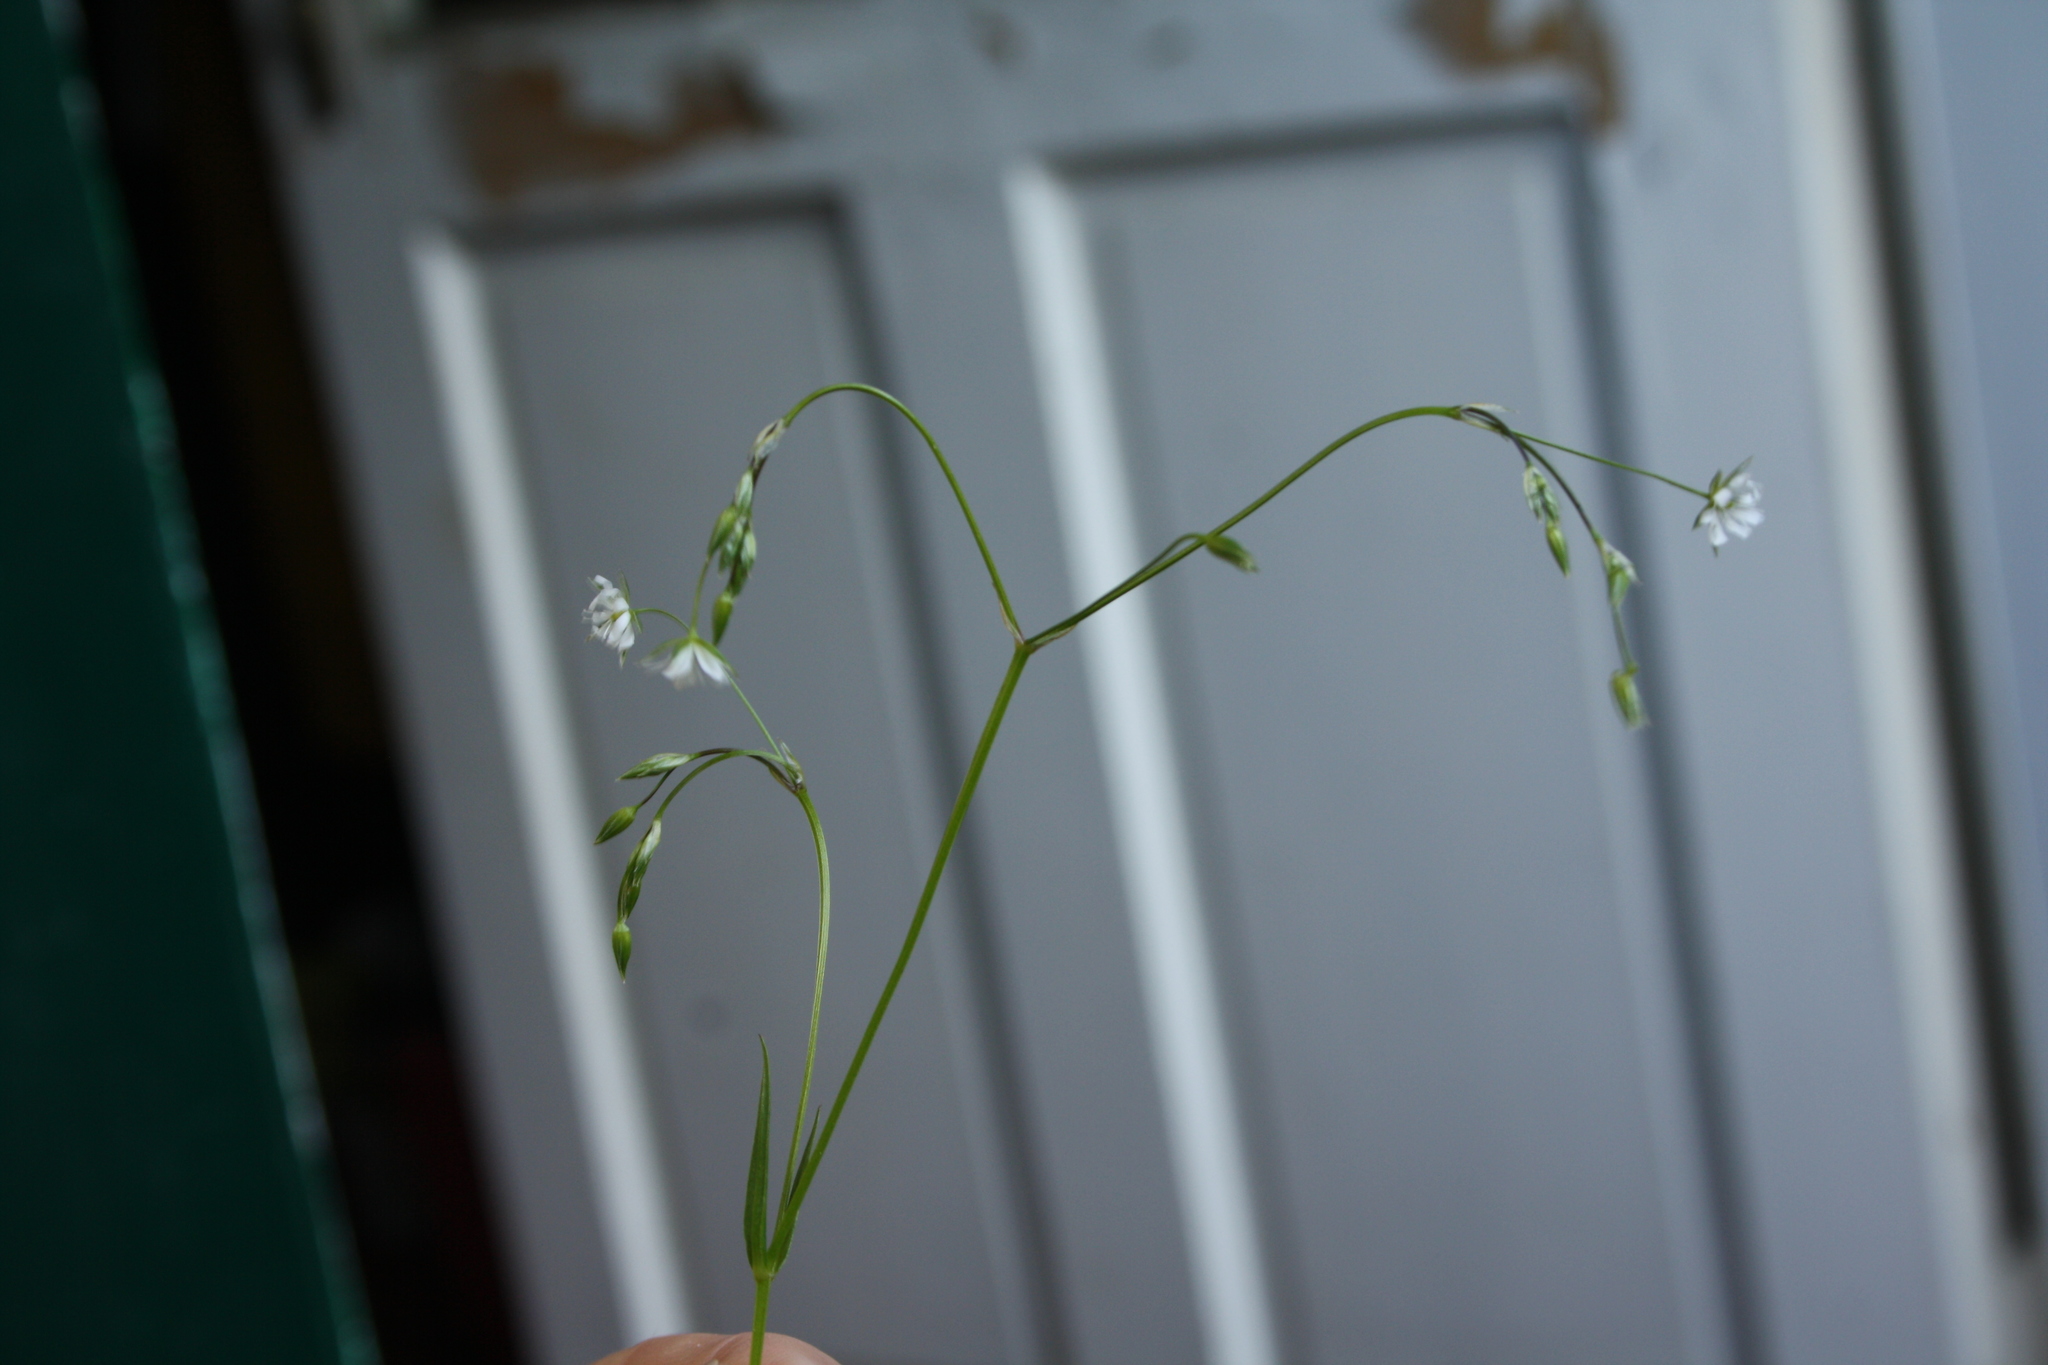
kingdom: Plantae
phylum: Tracheophyta
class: Magnoliopsida
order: Caryophyllales
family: Caryophyllaceae
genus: Stellaria
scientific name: Stellaria graminea
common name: Grass-like starwort
